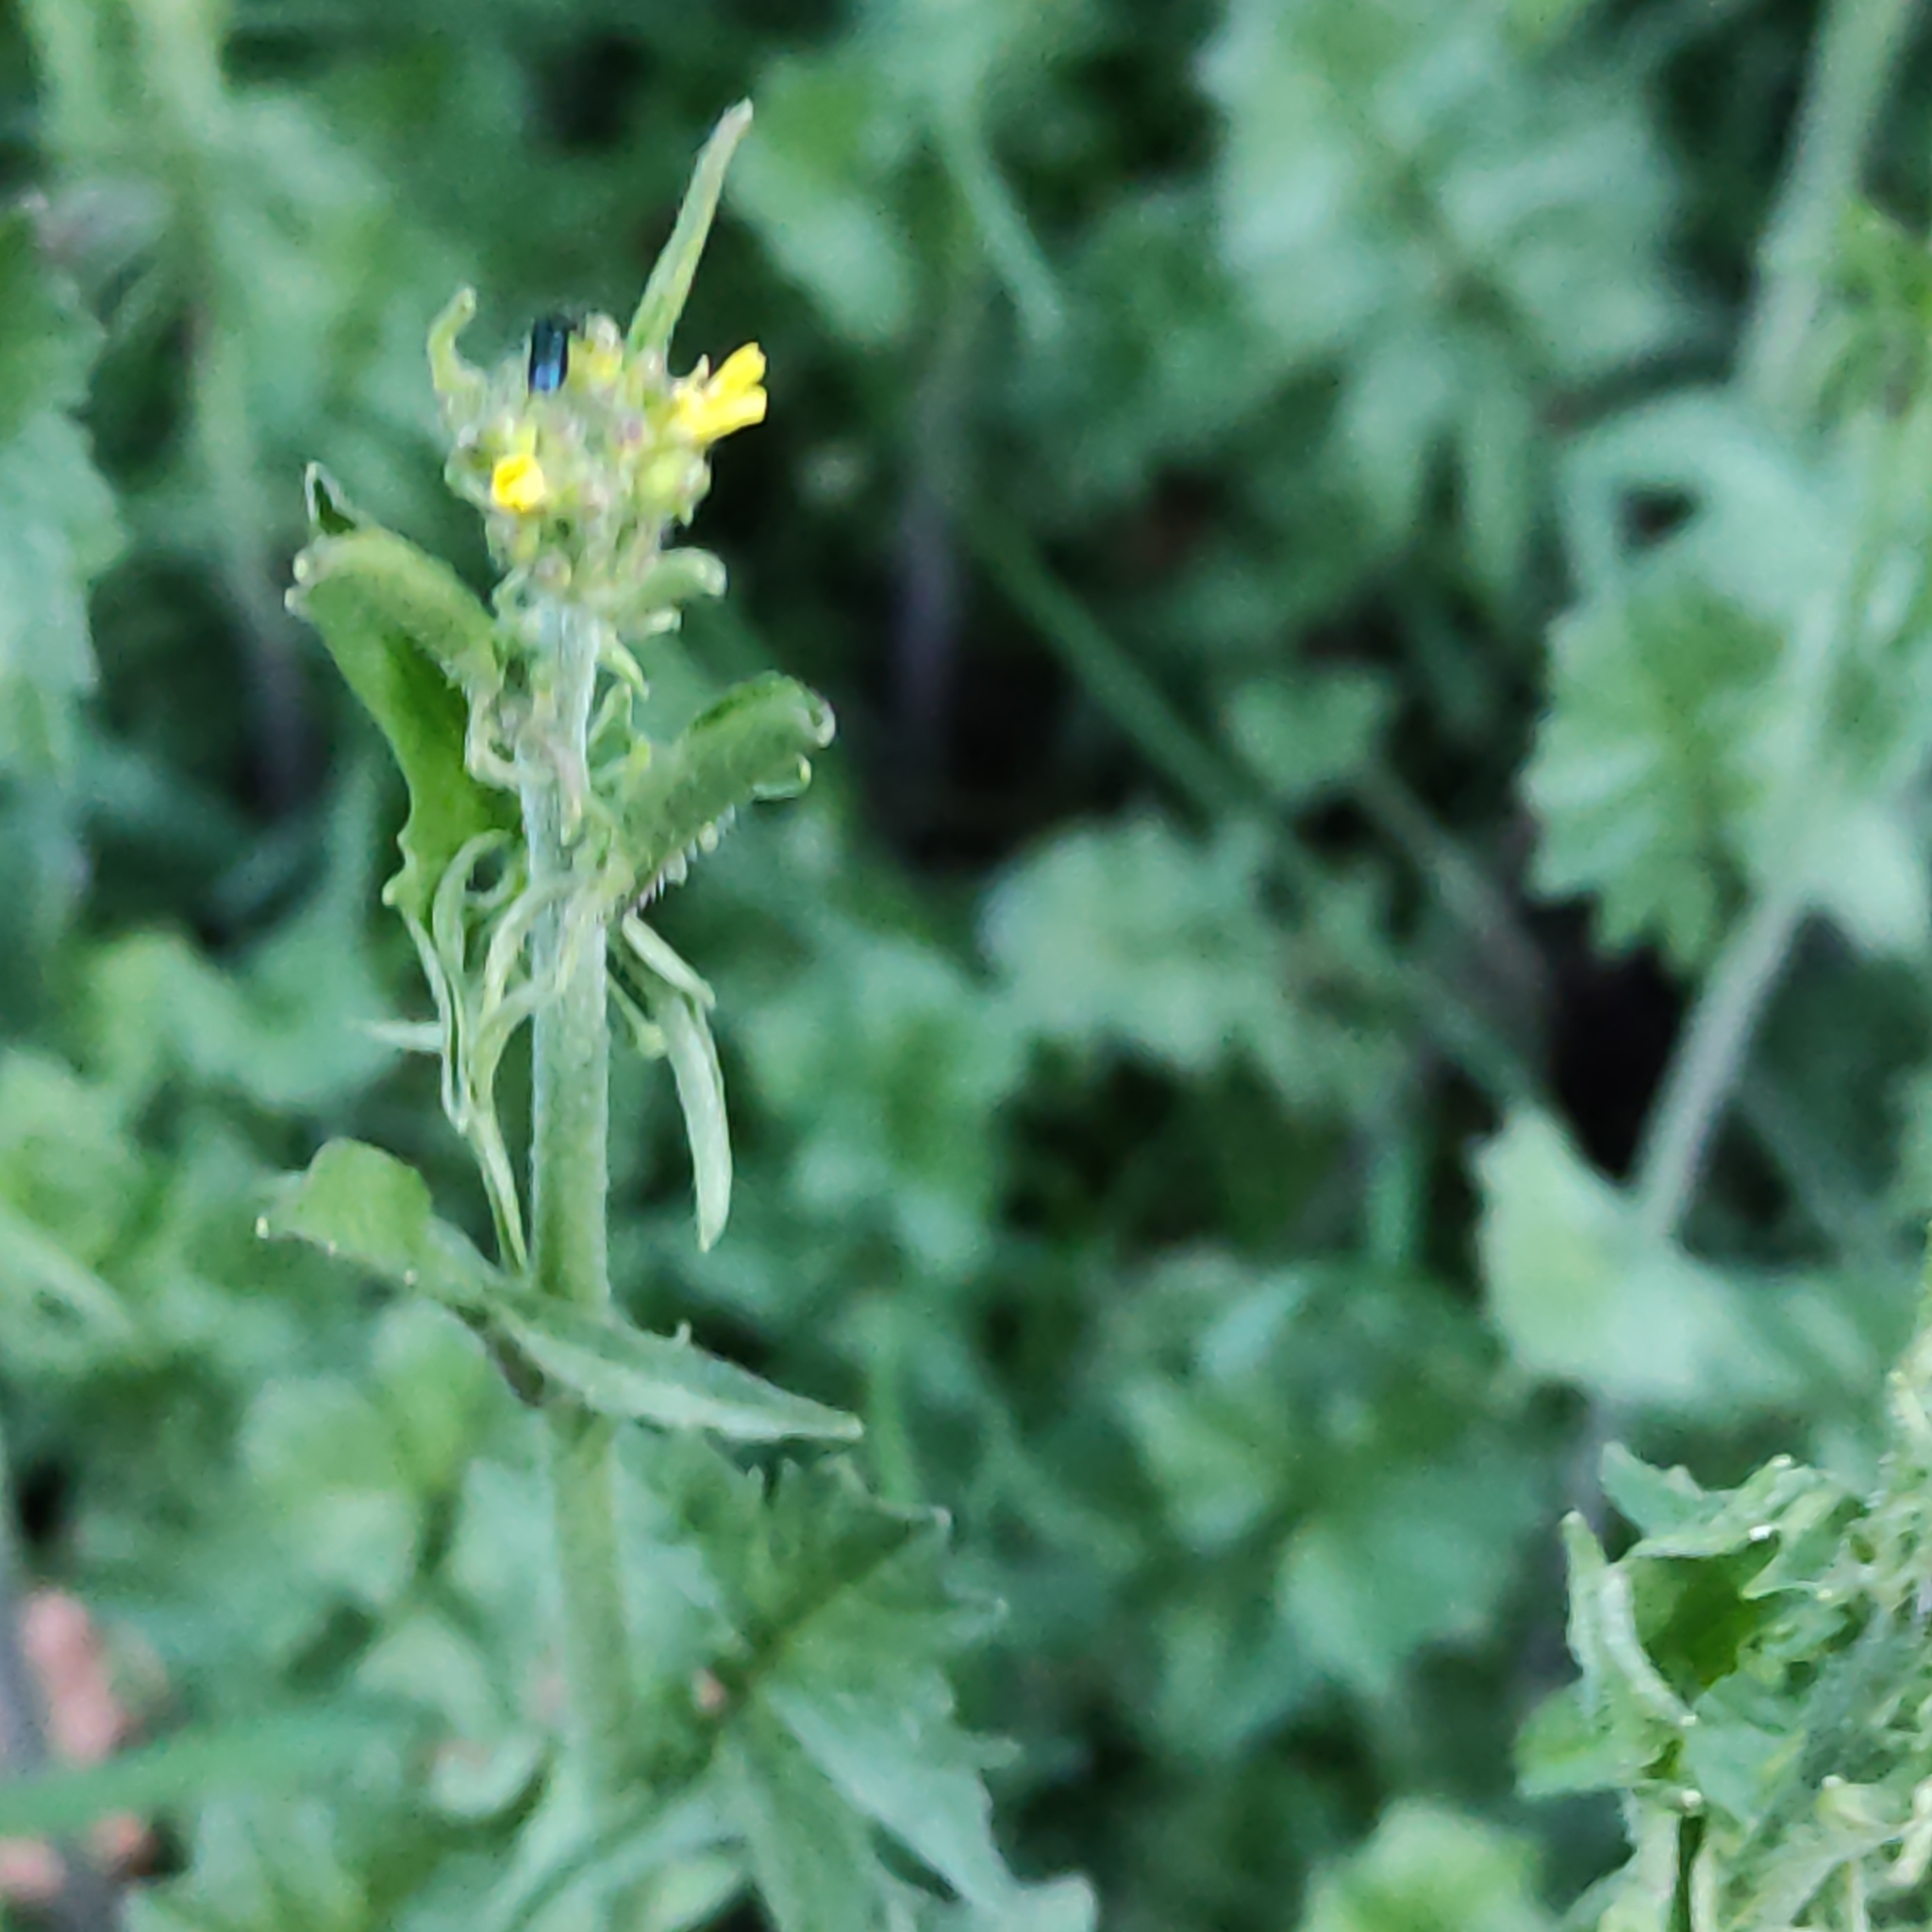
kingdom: Plantae
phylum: Tracheophyta
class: Magnoliopsida
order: Brassicales
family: Brassicaceae
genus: Sisymbrium
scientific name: Sisymbrium officinale
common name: Hedge mustard
